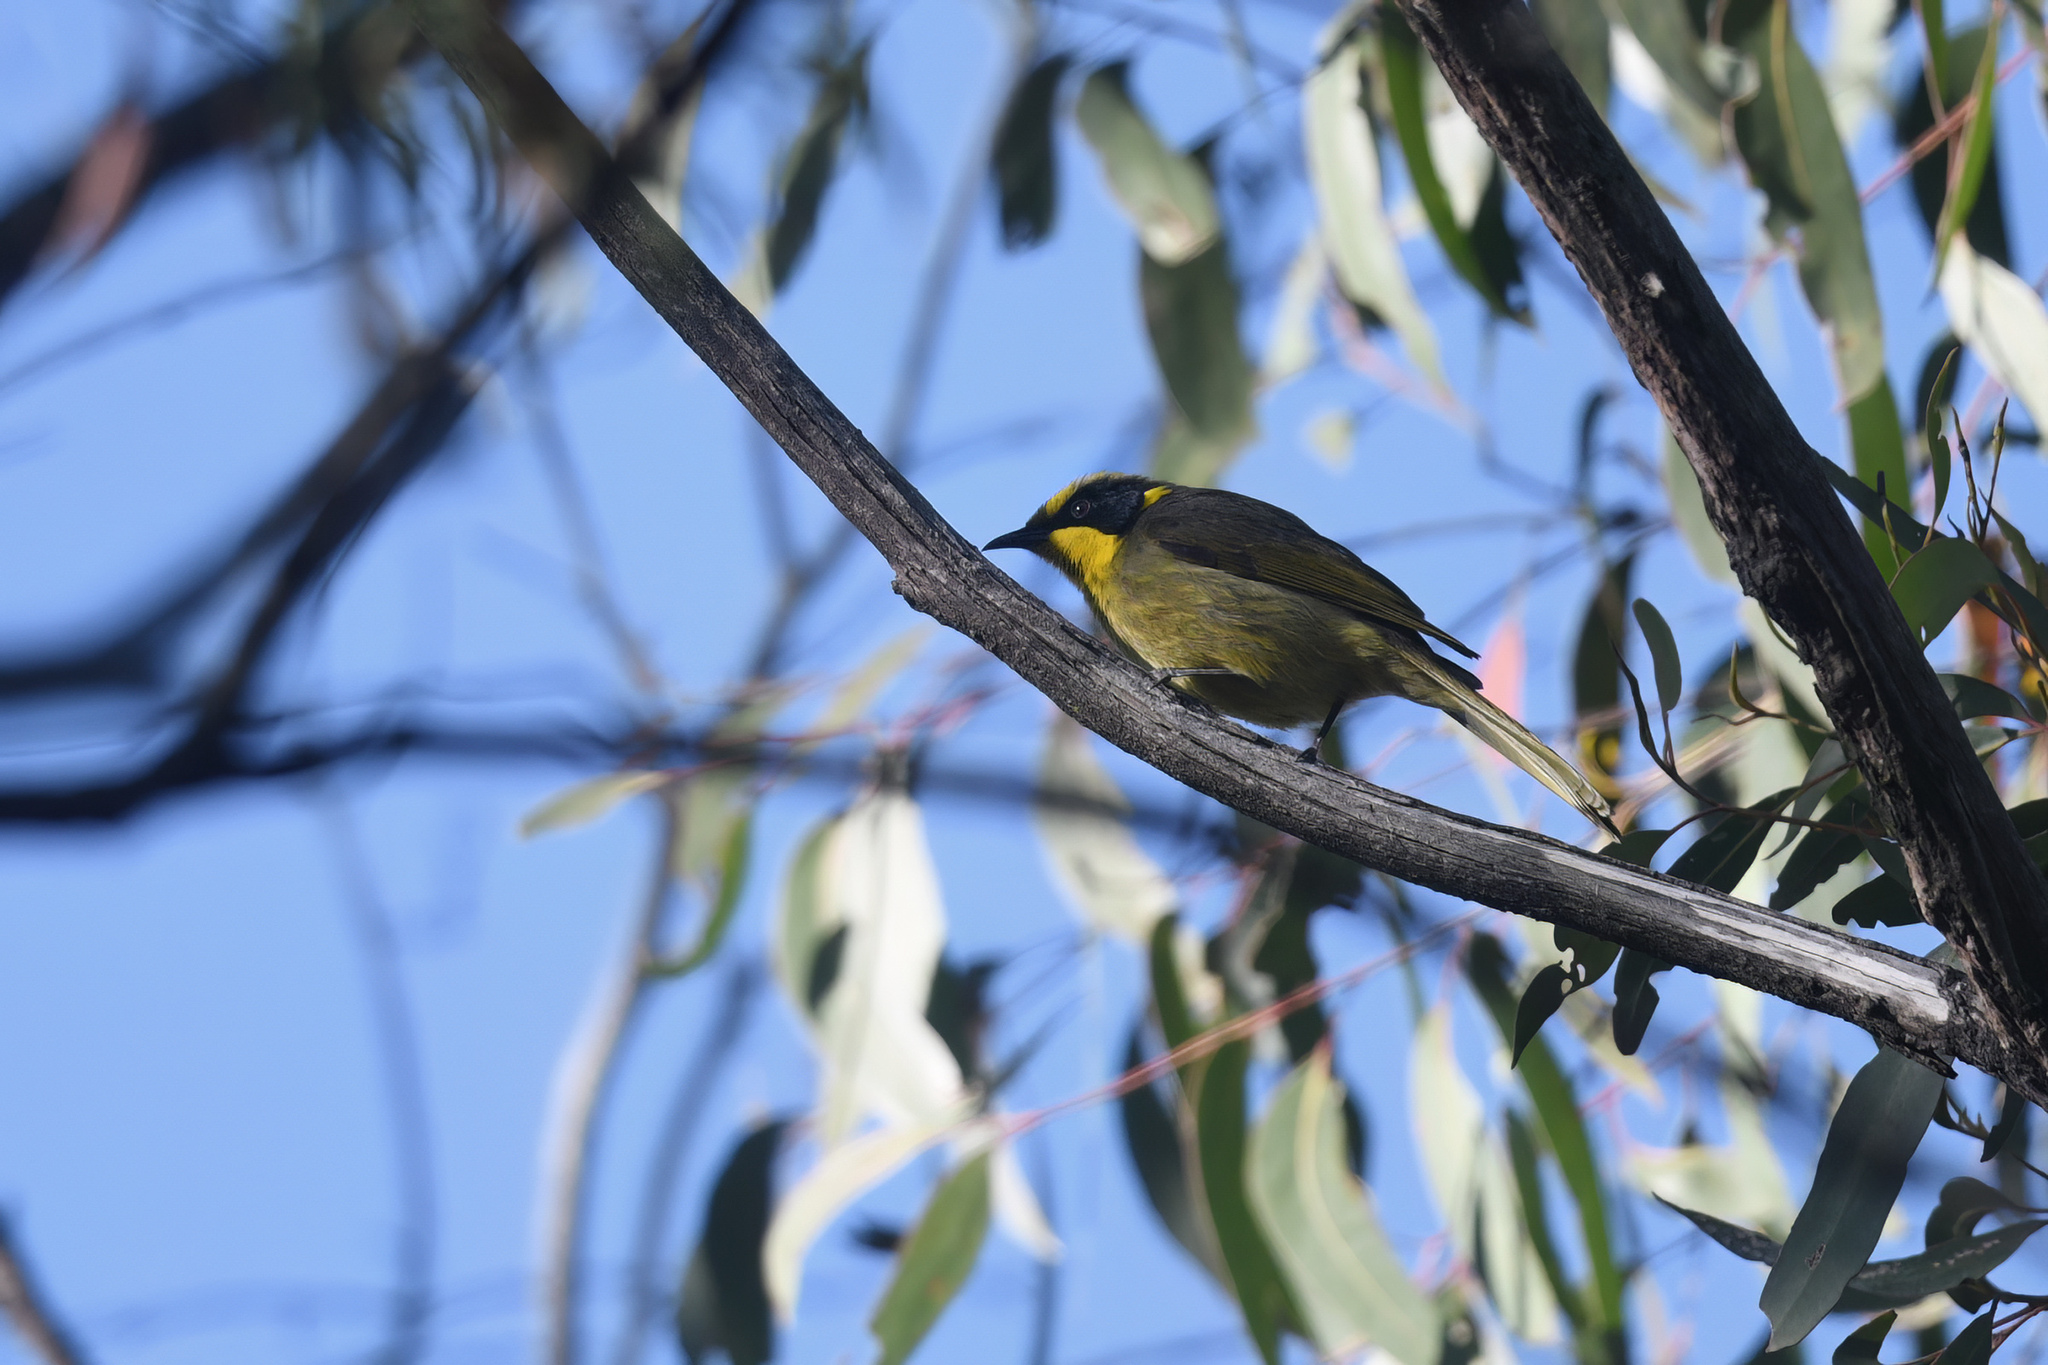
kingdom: Animalia
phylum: Chordata
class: Aves
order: Passeriformes
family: Meliphagidae
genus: Lichenostomus
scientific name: Lichenostomus melanops
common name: Yellow-tufted honeyeater
